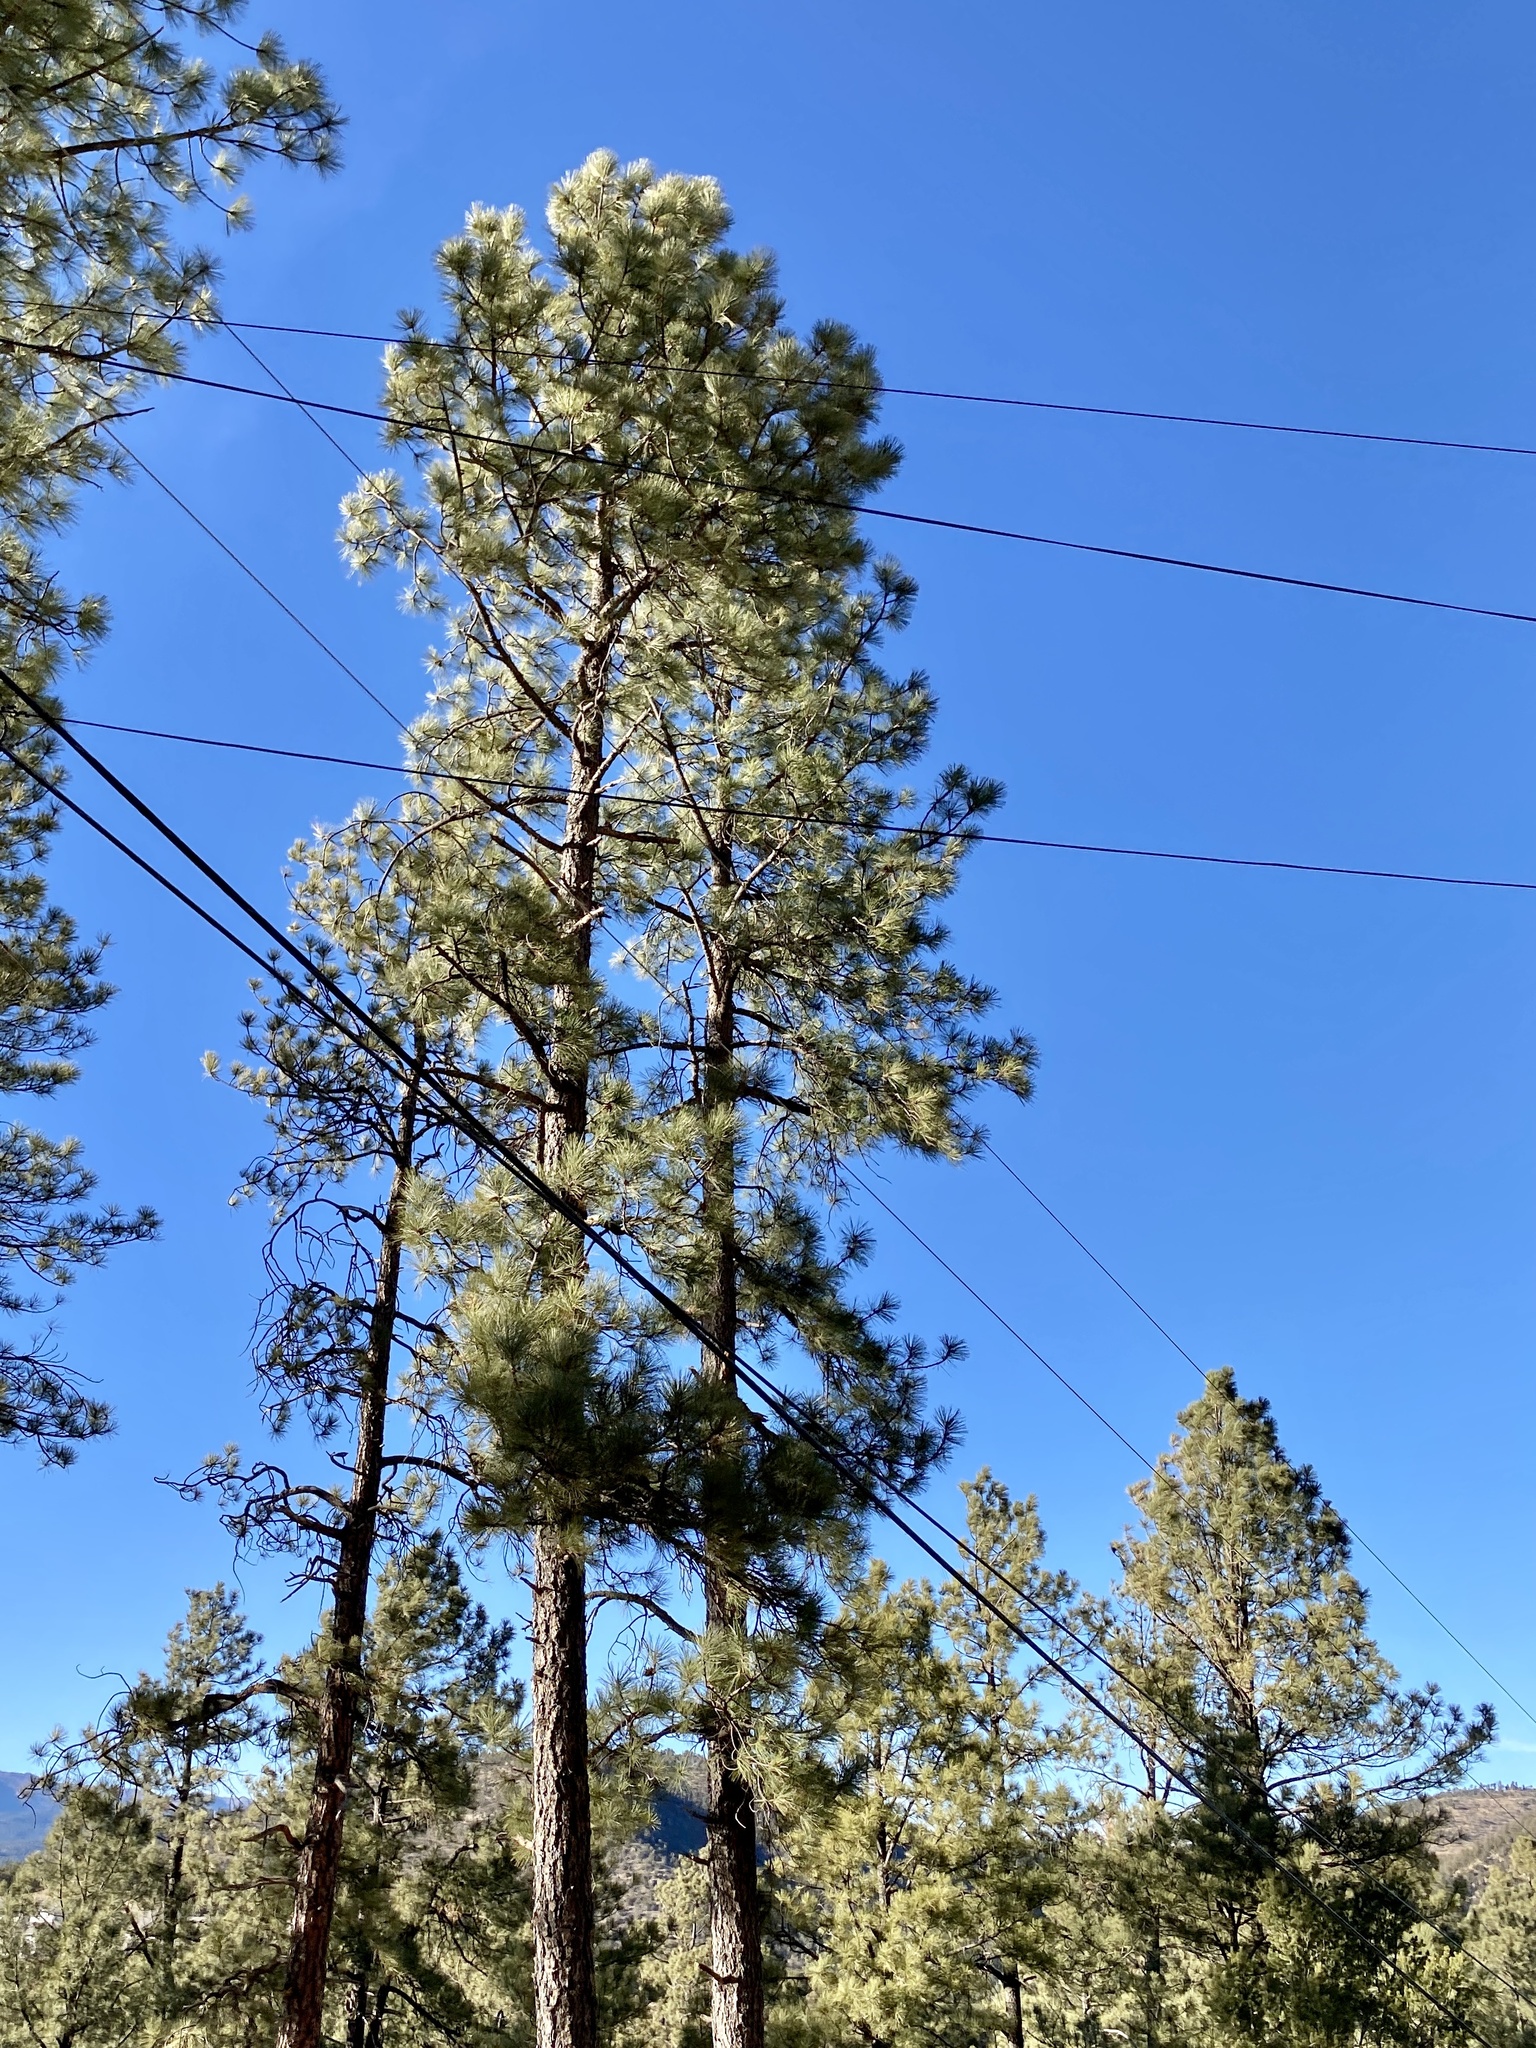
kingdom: Plantae
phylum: Tracheophyta
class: Pinopsida
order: Pinales
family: Pinaceae
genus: Pinus
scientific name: Pinus ponderosa
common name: Western yellow-pine
